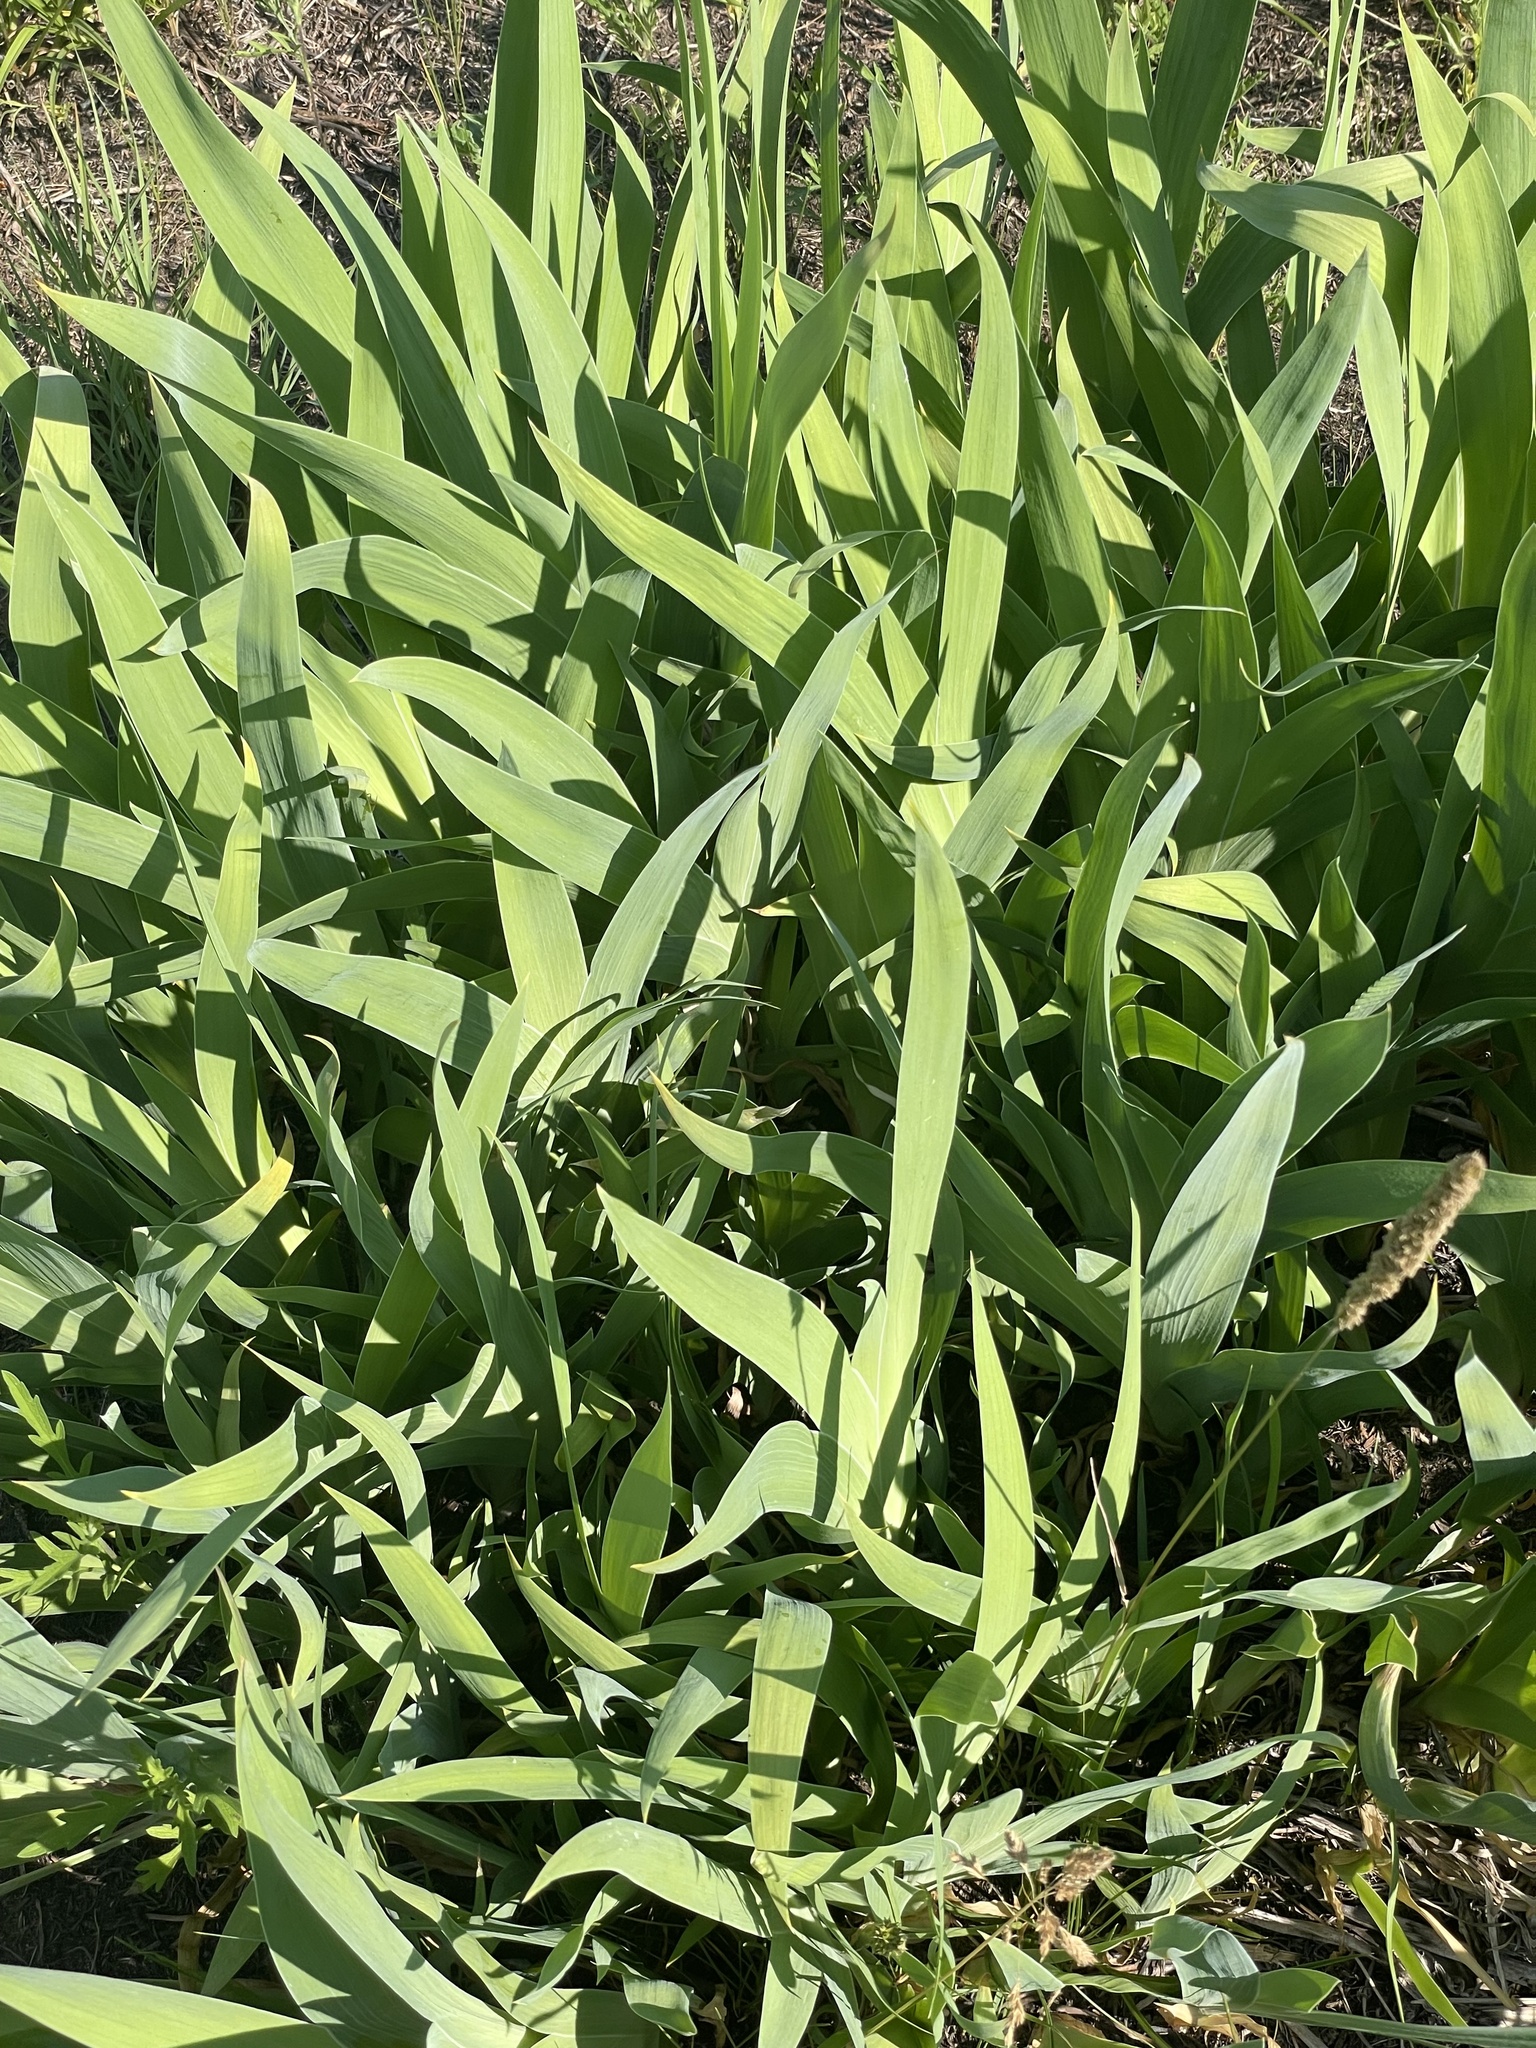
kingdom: Plantae
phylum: Tracheophyta
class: Liliopsida
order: Asparagales
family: Iridaceae
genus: Iris
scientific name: Iris domestica
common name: Belamcanda
